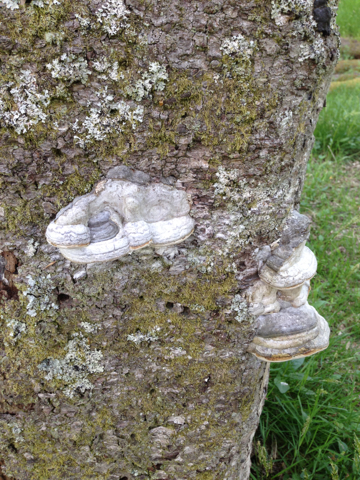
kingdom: Fungi
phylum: Basidiomycota
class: Agaricomycetes
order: Polyporales
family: Polyporaceae
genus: Fomes
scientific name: Fomes fomentarius
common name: Hoof fungus
